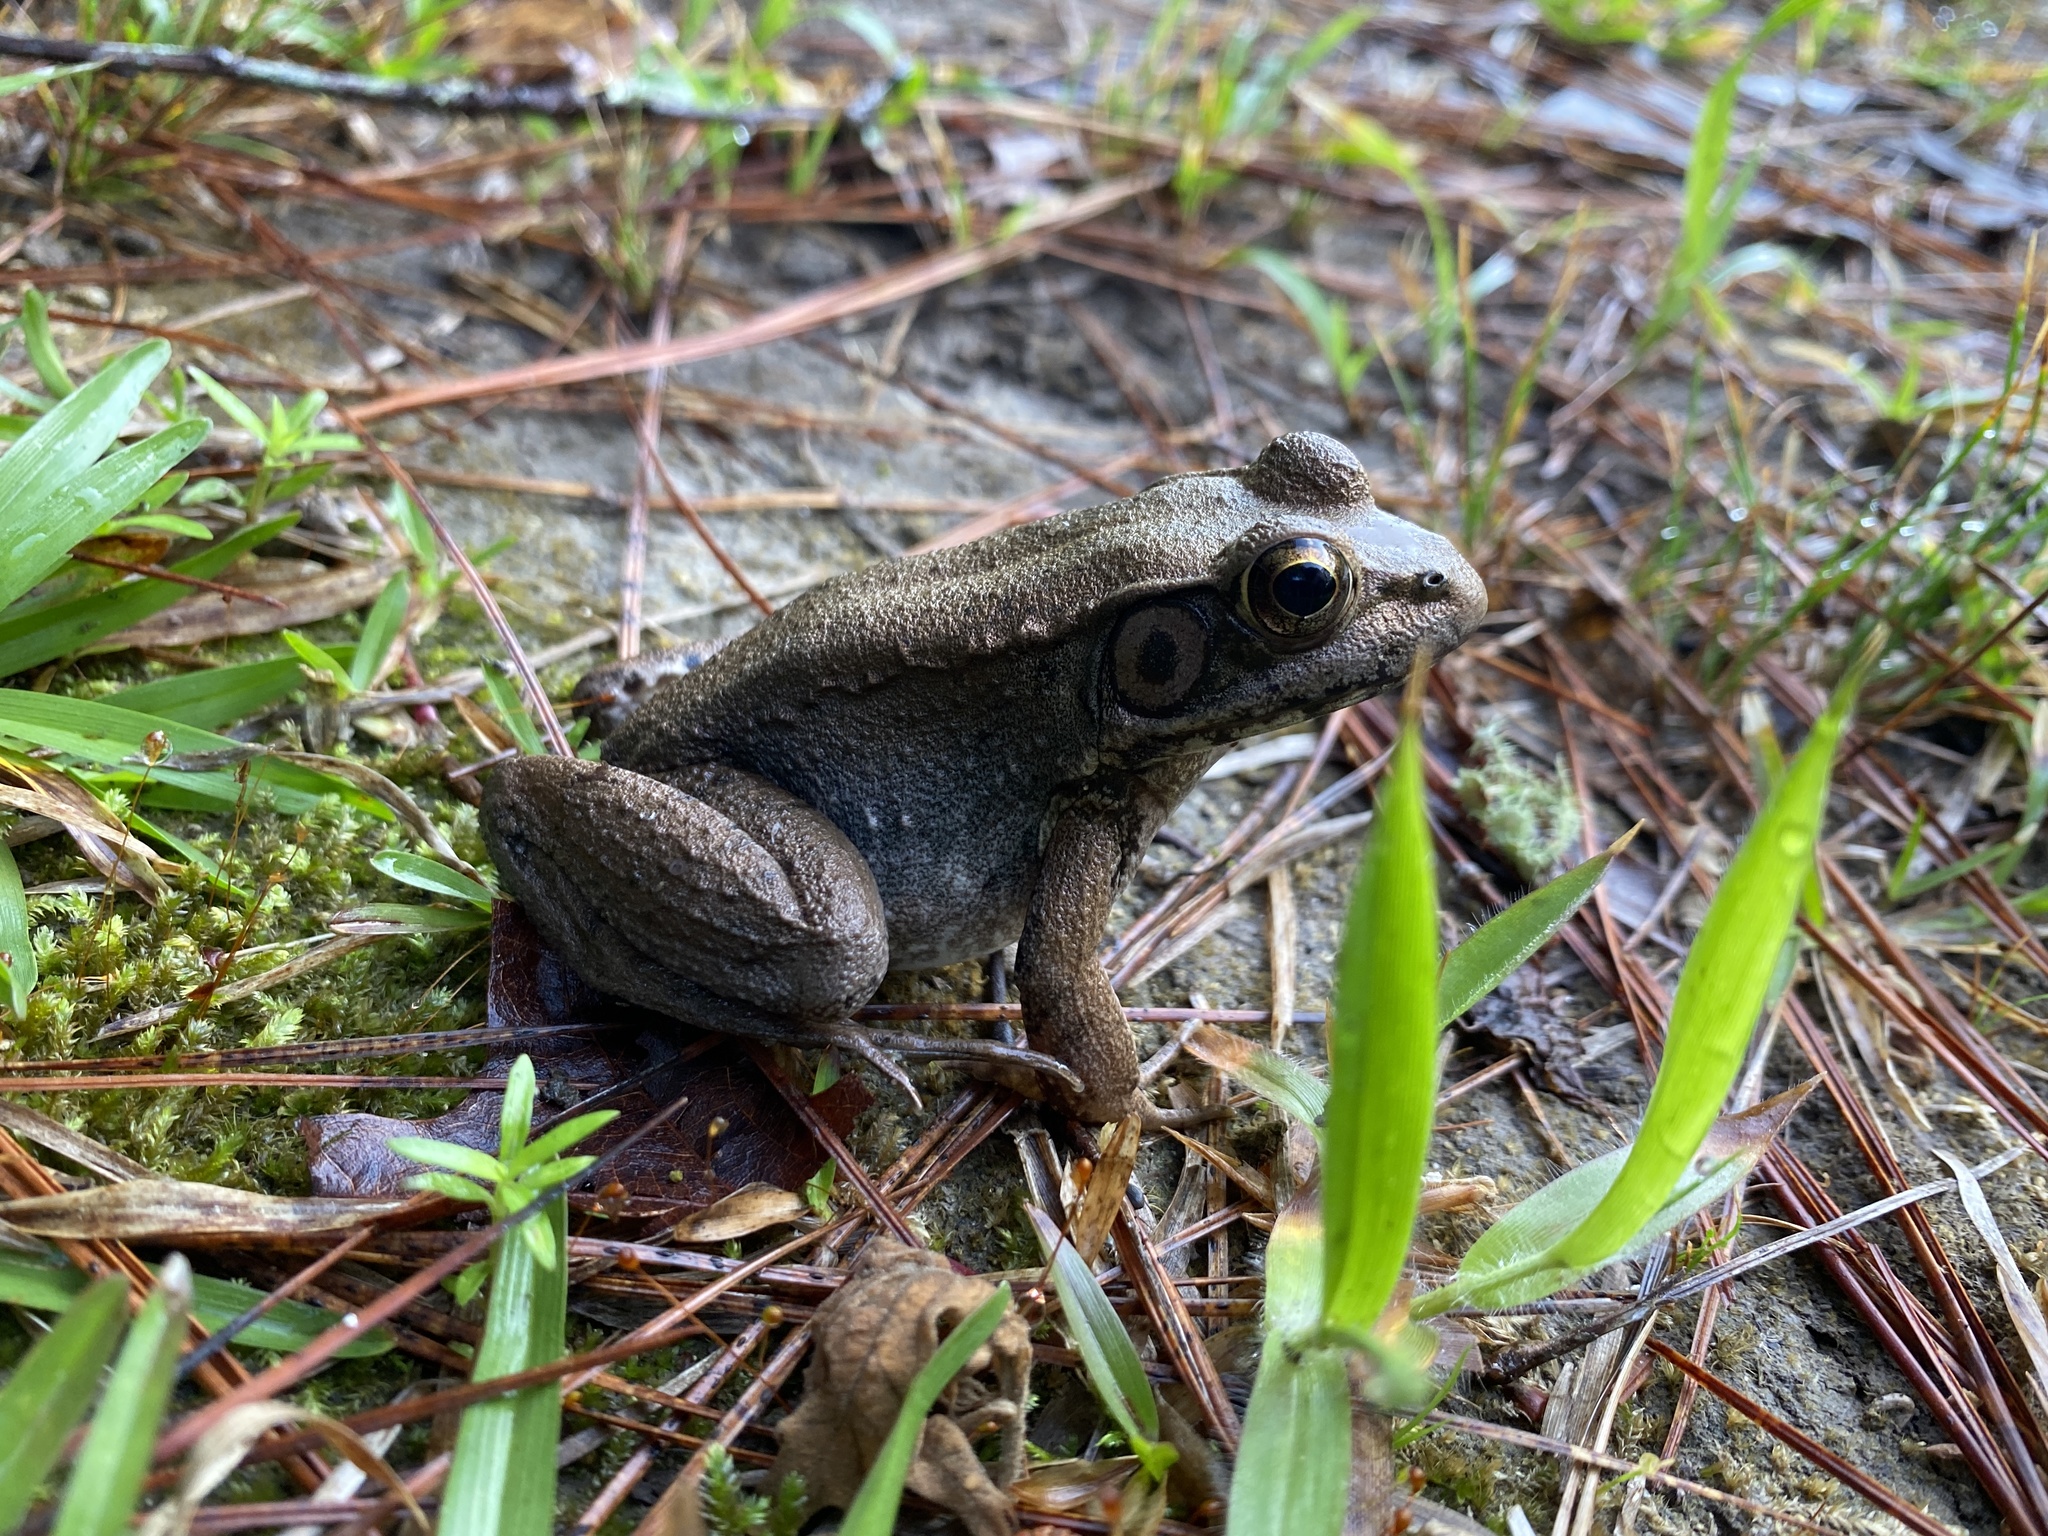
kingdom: Animalia
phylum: Chordata
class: Amphibia
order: Anura
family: Ranidae
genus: Lithobates
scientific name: Lithobates clamitans
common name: Green frog
